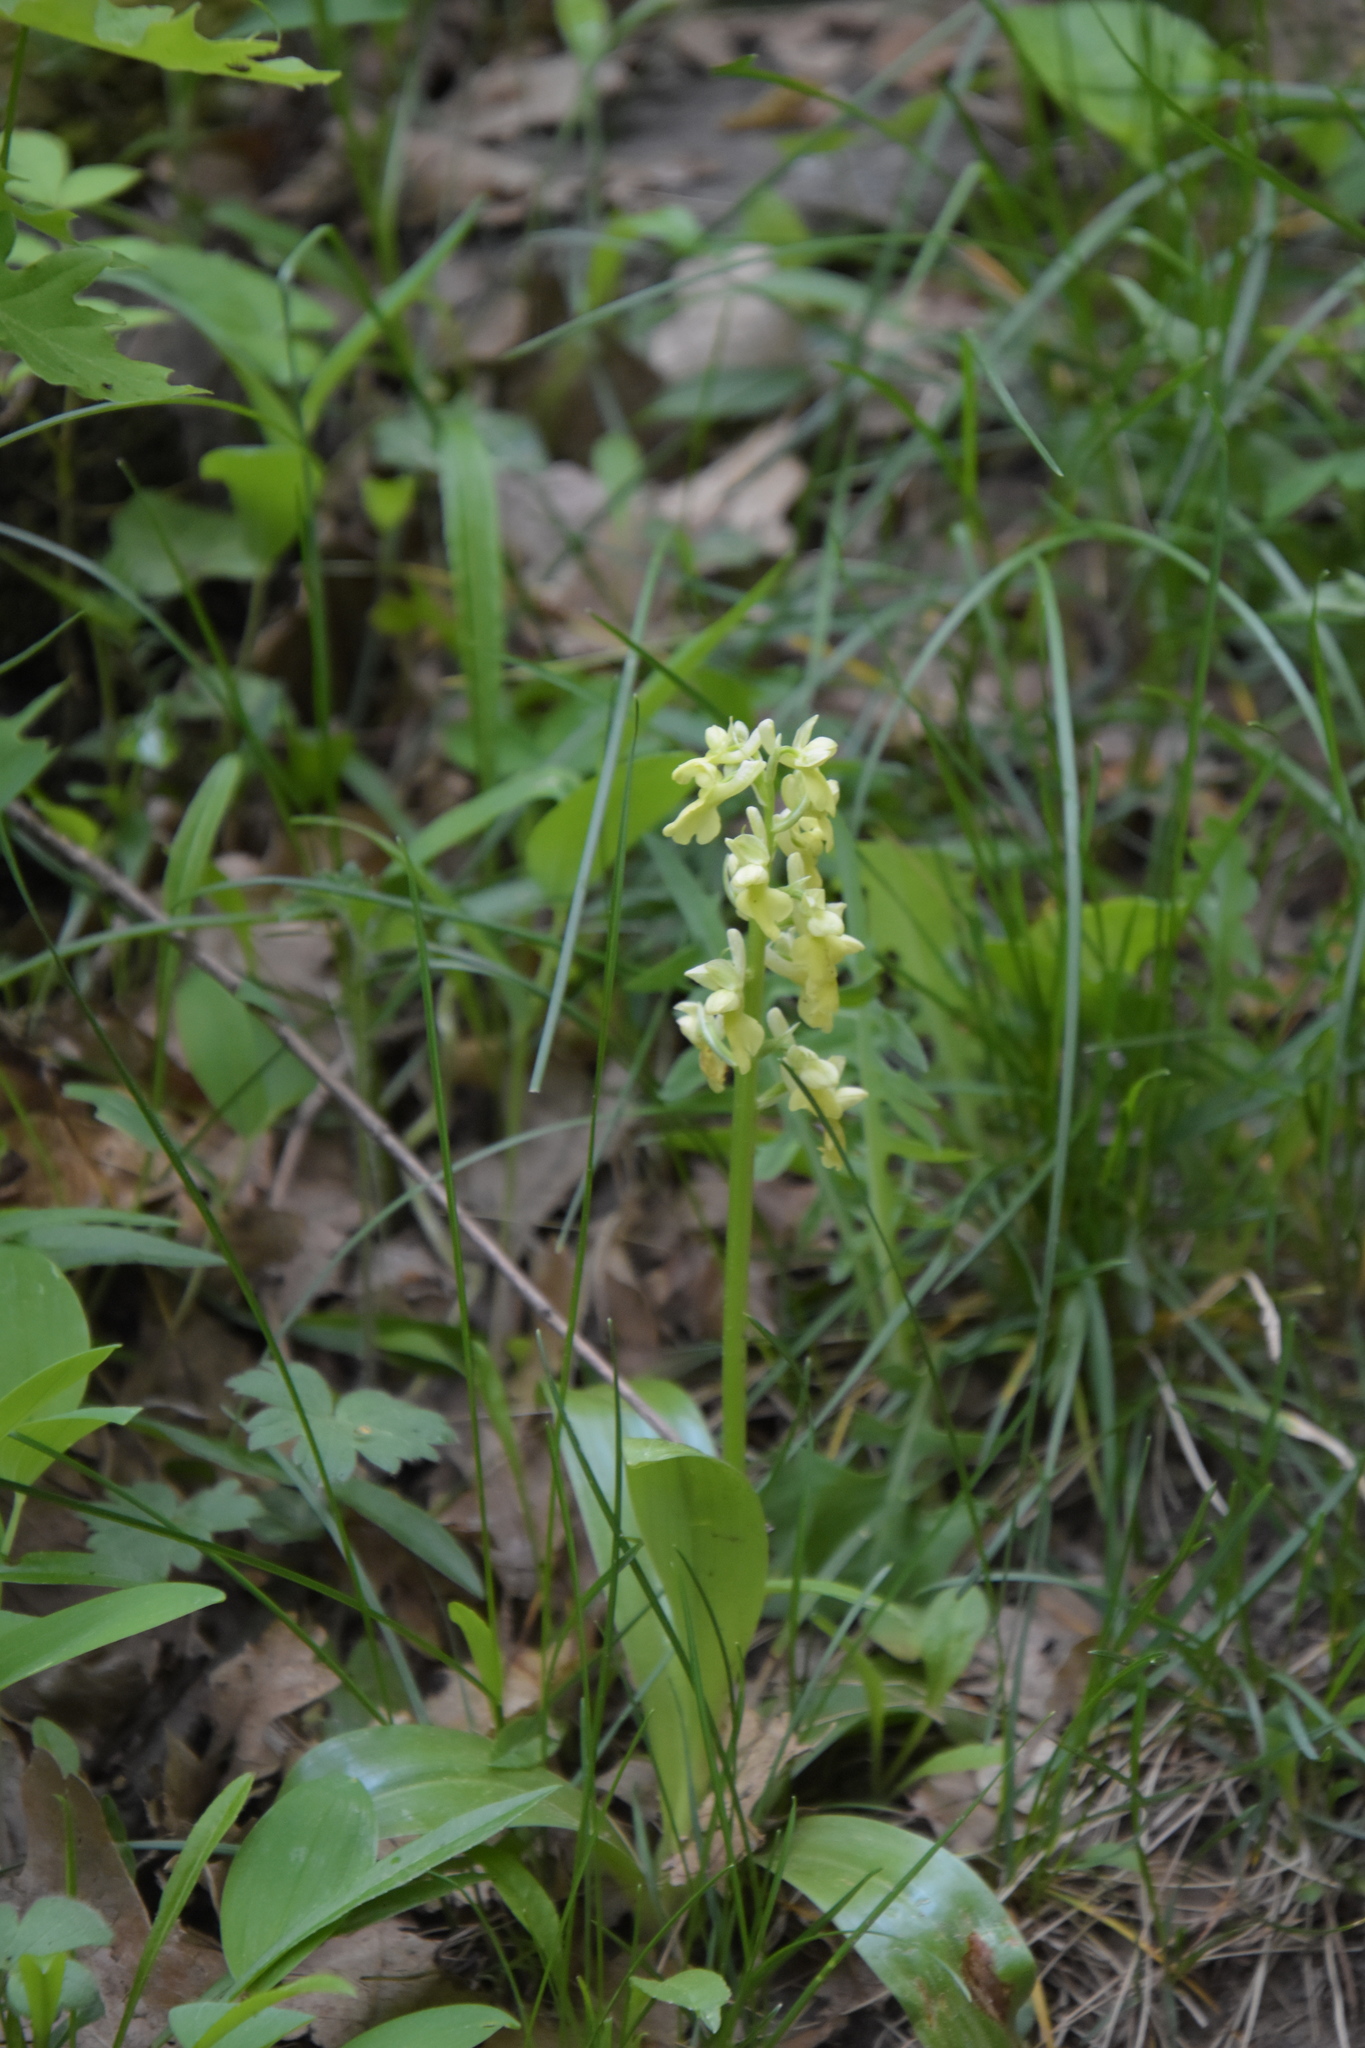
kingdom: Plantae
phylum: Tracheophyta
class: Liliopsida
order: Asparagales
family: Orchidaceae
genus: Orchis
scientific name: Orchis pallens
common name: Pale-flowered orchid
